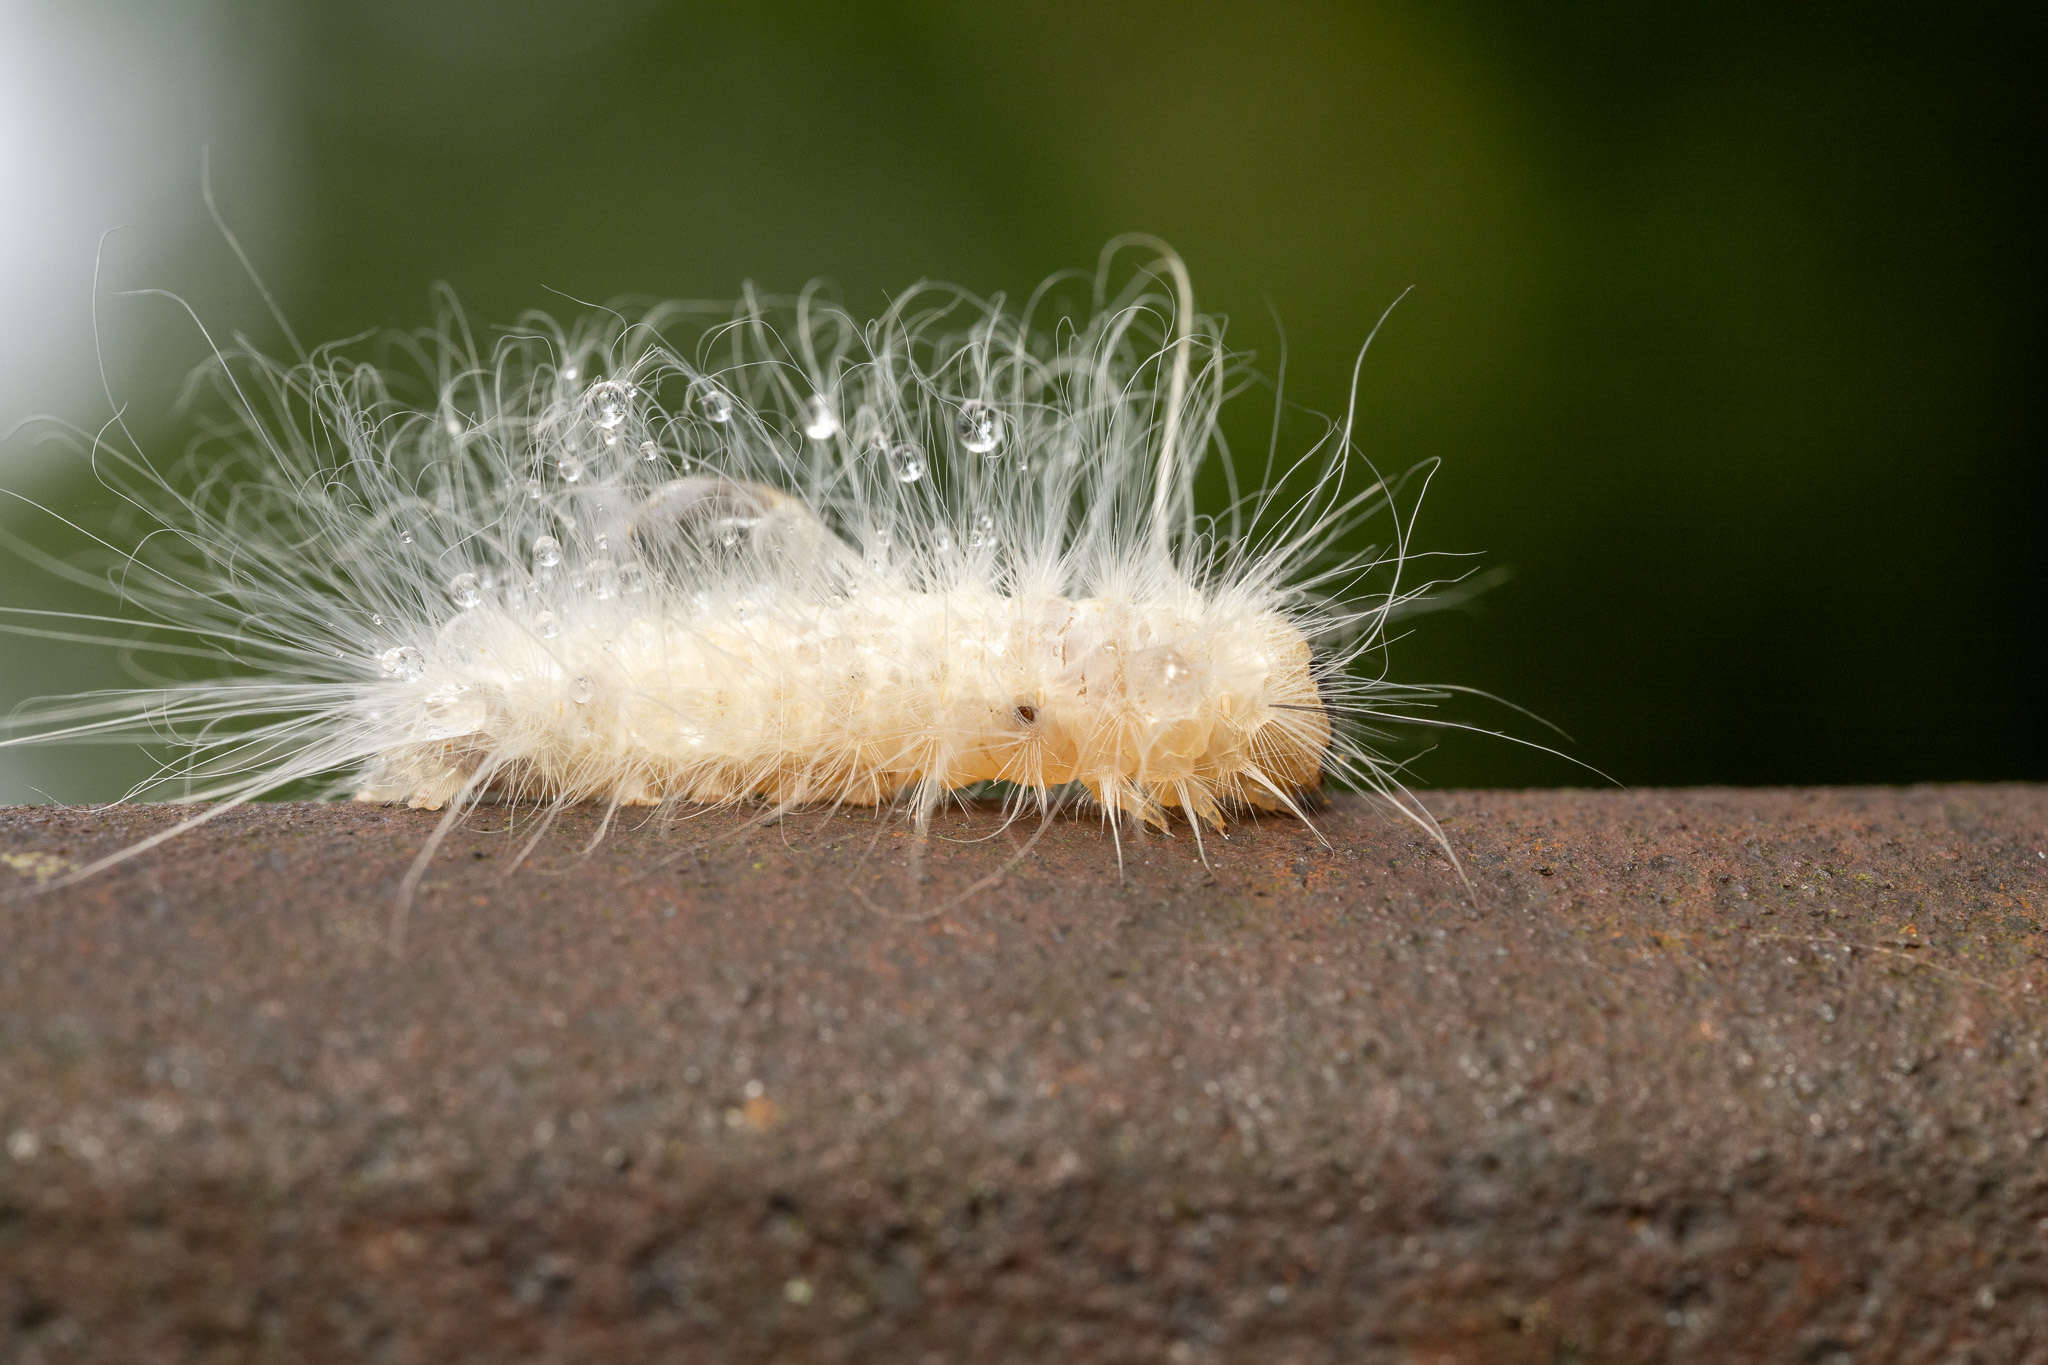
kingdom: Animalia
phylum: Arthropoda
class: Insecta
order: Lepidoptera
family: Noctuidae
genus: Charadra
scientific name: Charadra deridens
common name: Marbled tuffet
